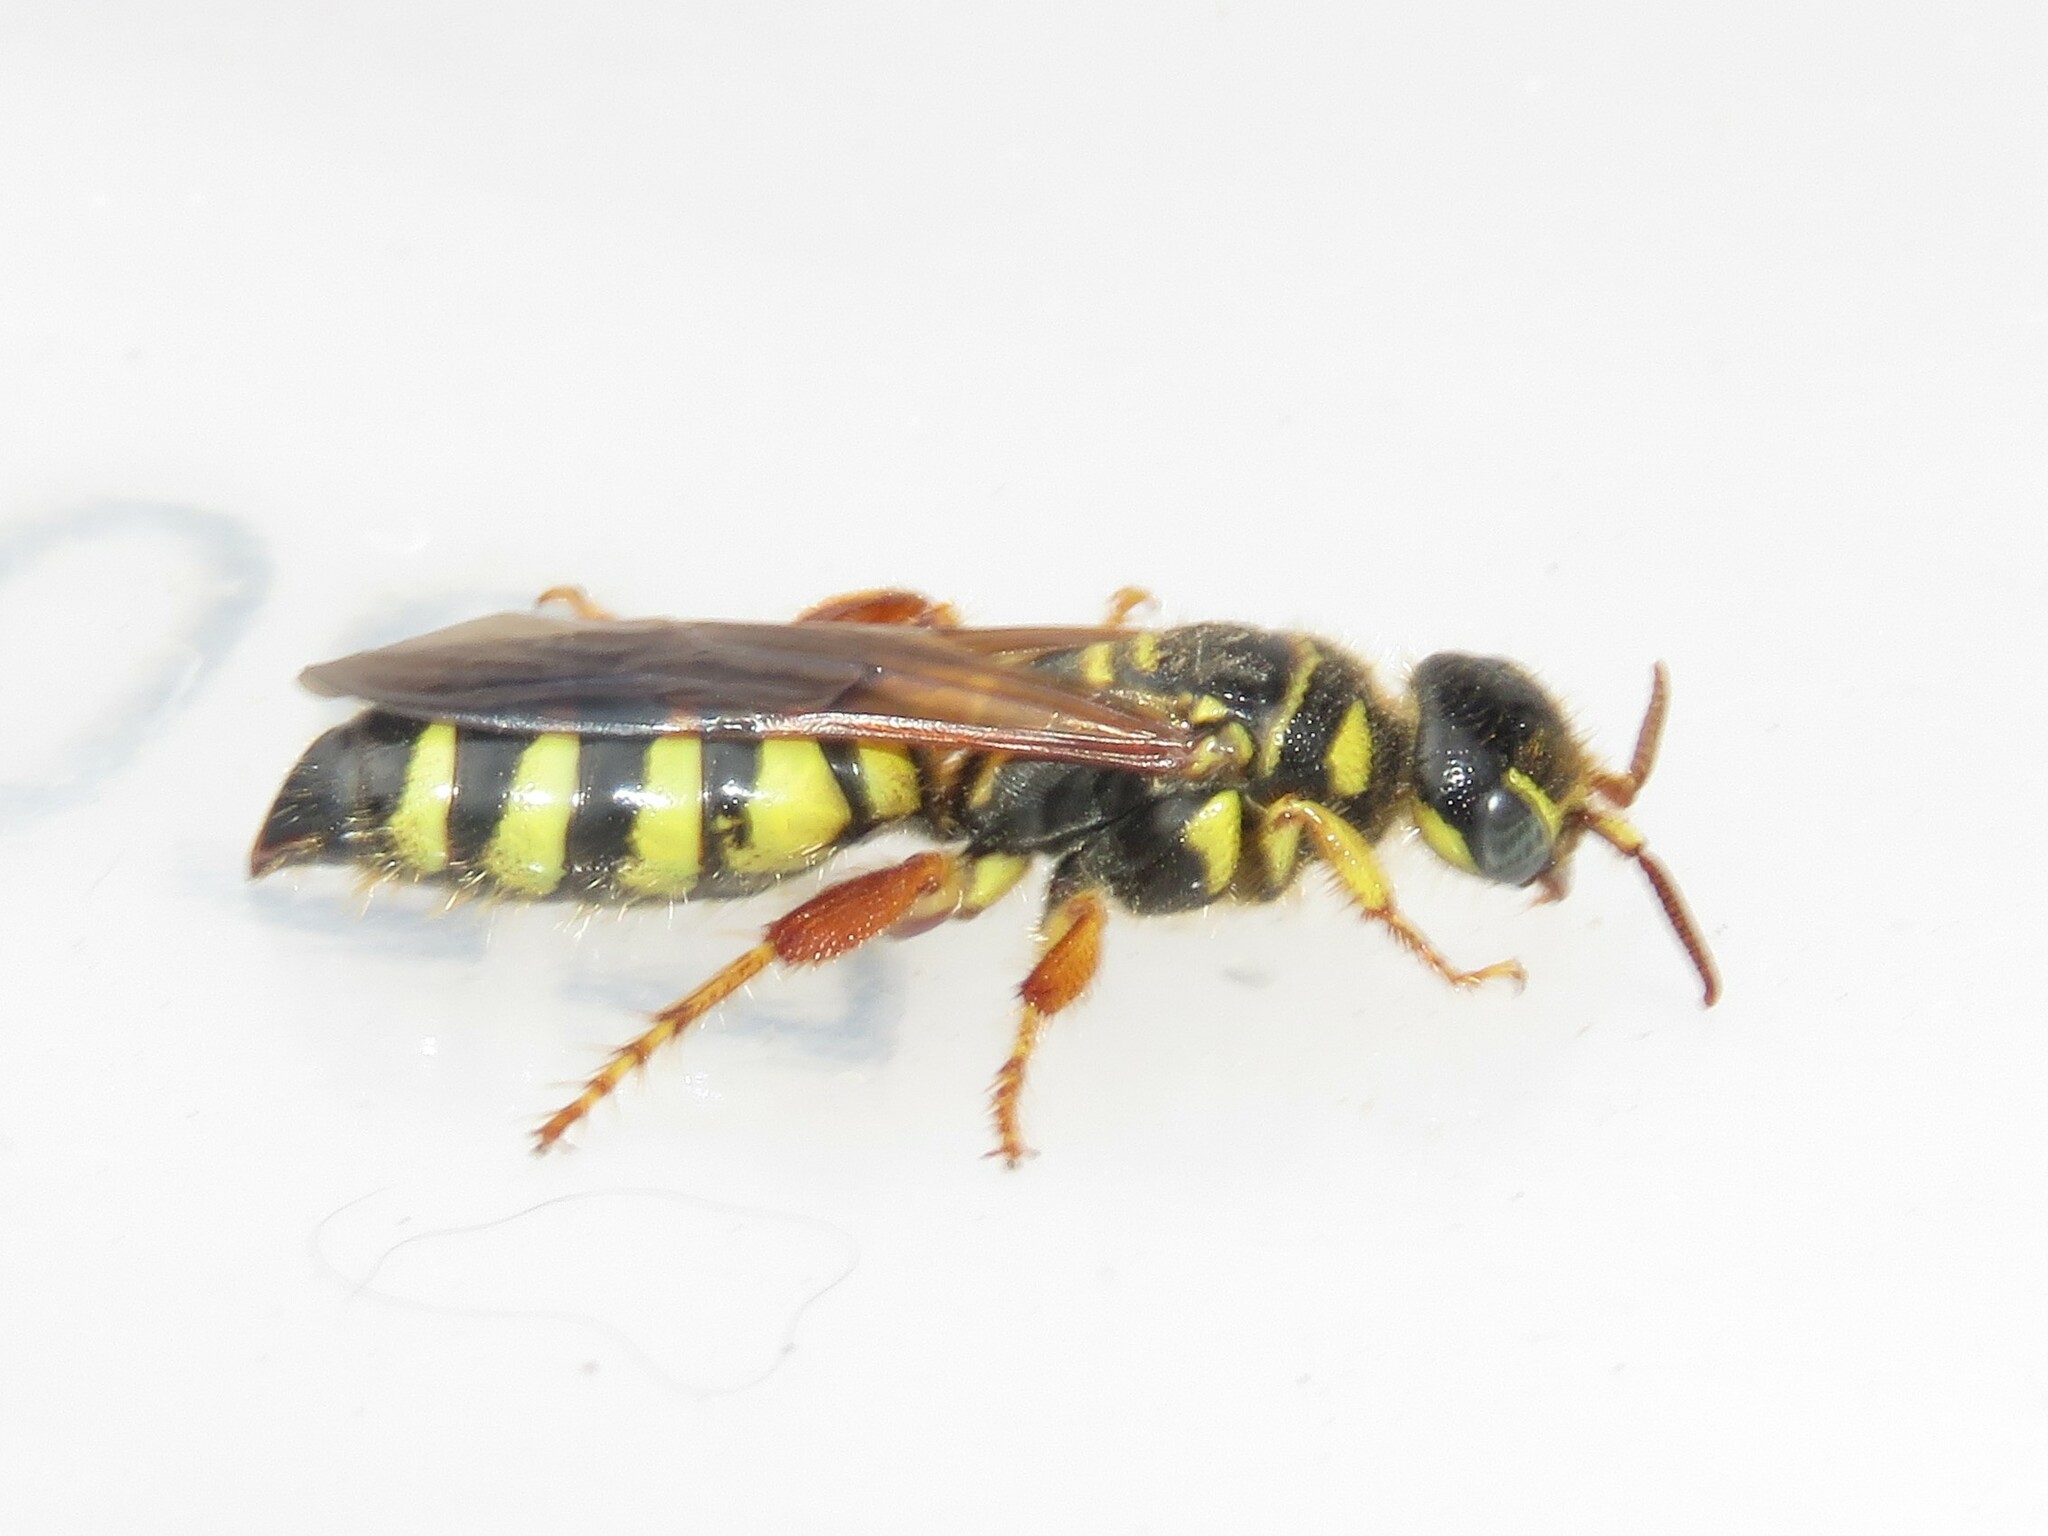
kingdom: Animalia
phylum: Arthropoda
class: Insecta
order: Hymenoptera
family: Tiphiidae
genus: Myzinum
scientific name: Myzinum quinquecinctum
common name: Five-banded thynnid wasp
